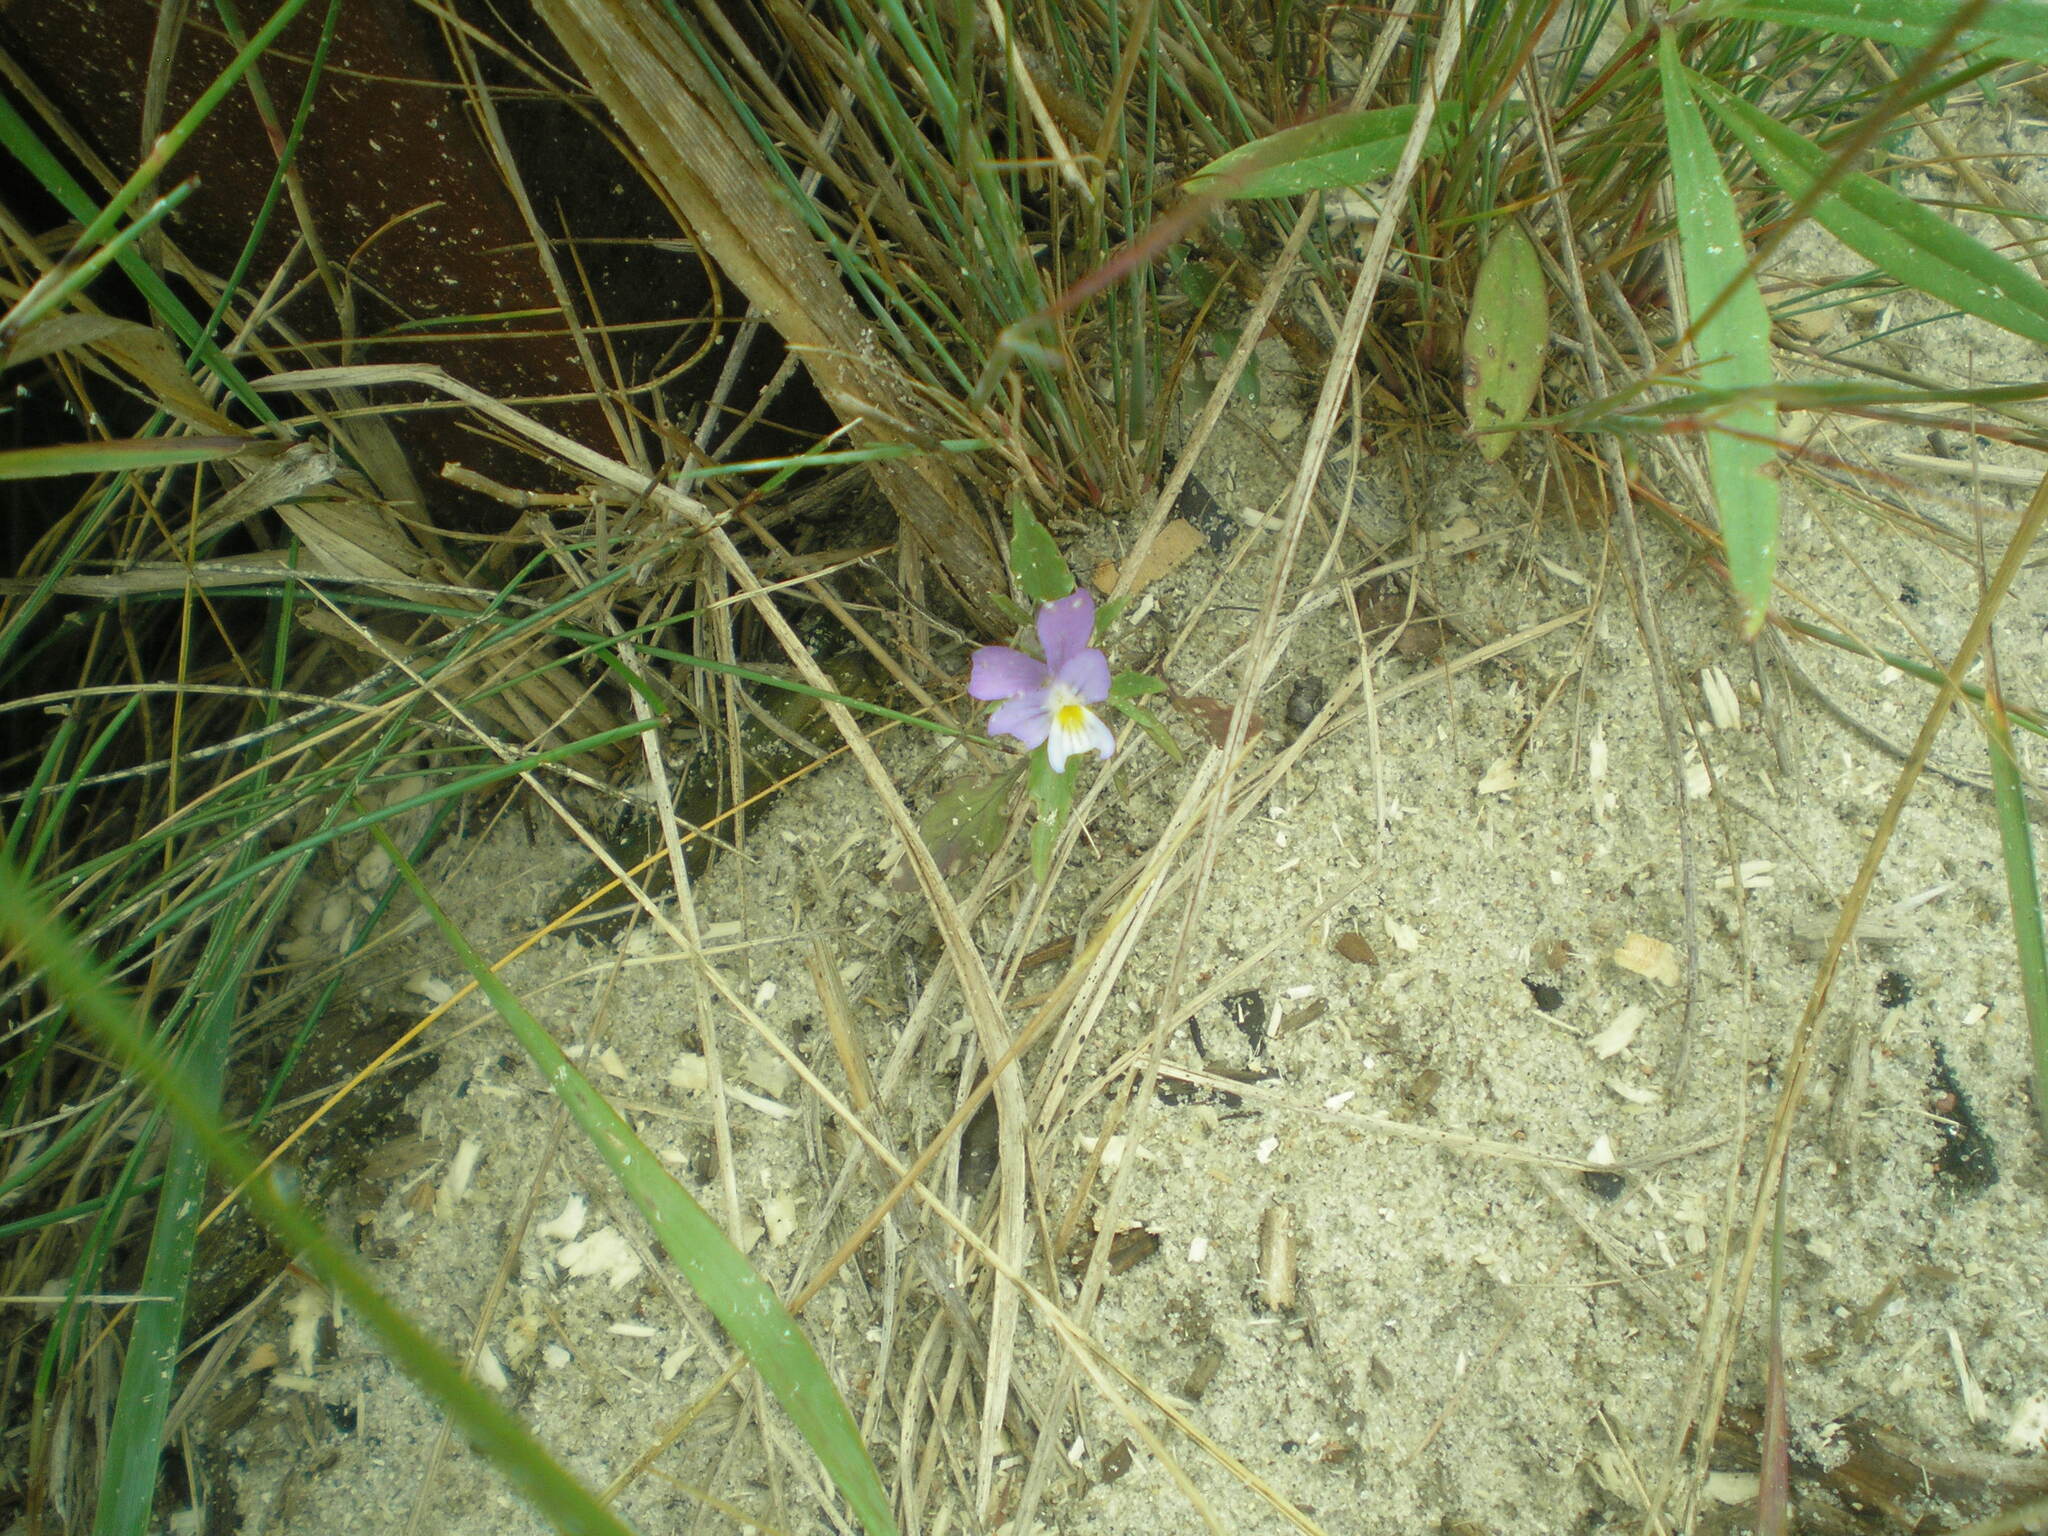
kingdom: Plantae
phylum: Tracheophyta
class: Magnoliopsida
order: Malpighiales
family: Violaceae
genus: Viola
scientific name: Viola tricolor
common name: Pansy
